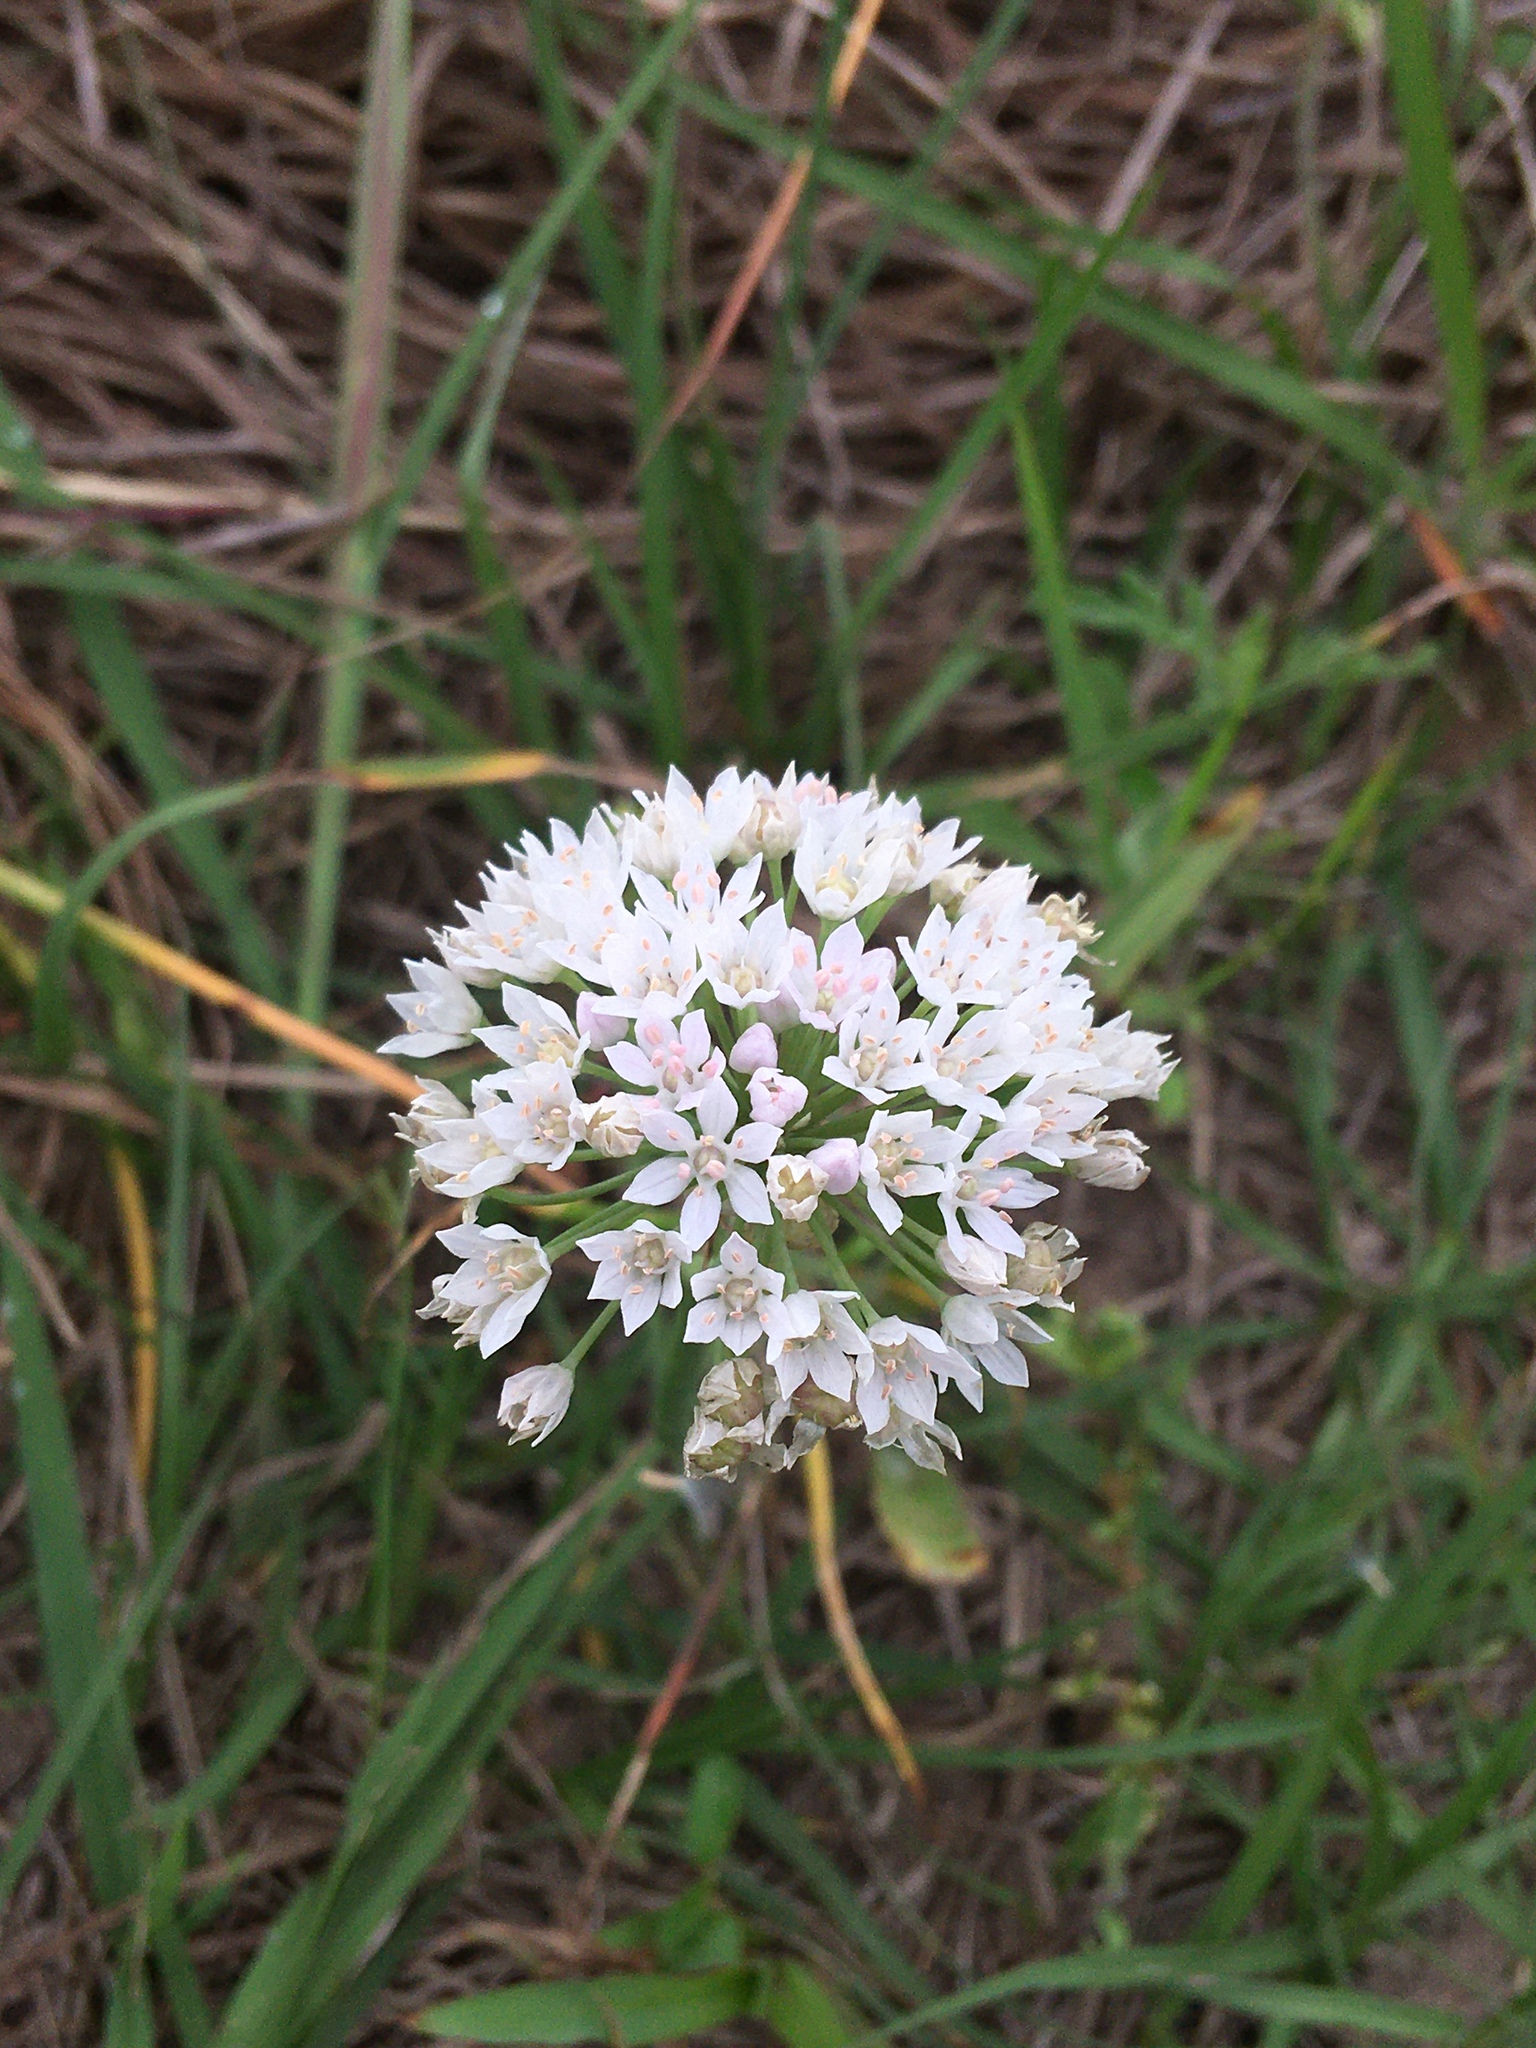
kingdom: Plantae
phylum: Tracheophyta
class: Liliopsida
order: Asparagales
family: Amaryllidaceae
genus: Allium
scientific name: Allium drummondii
